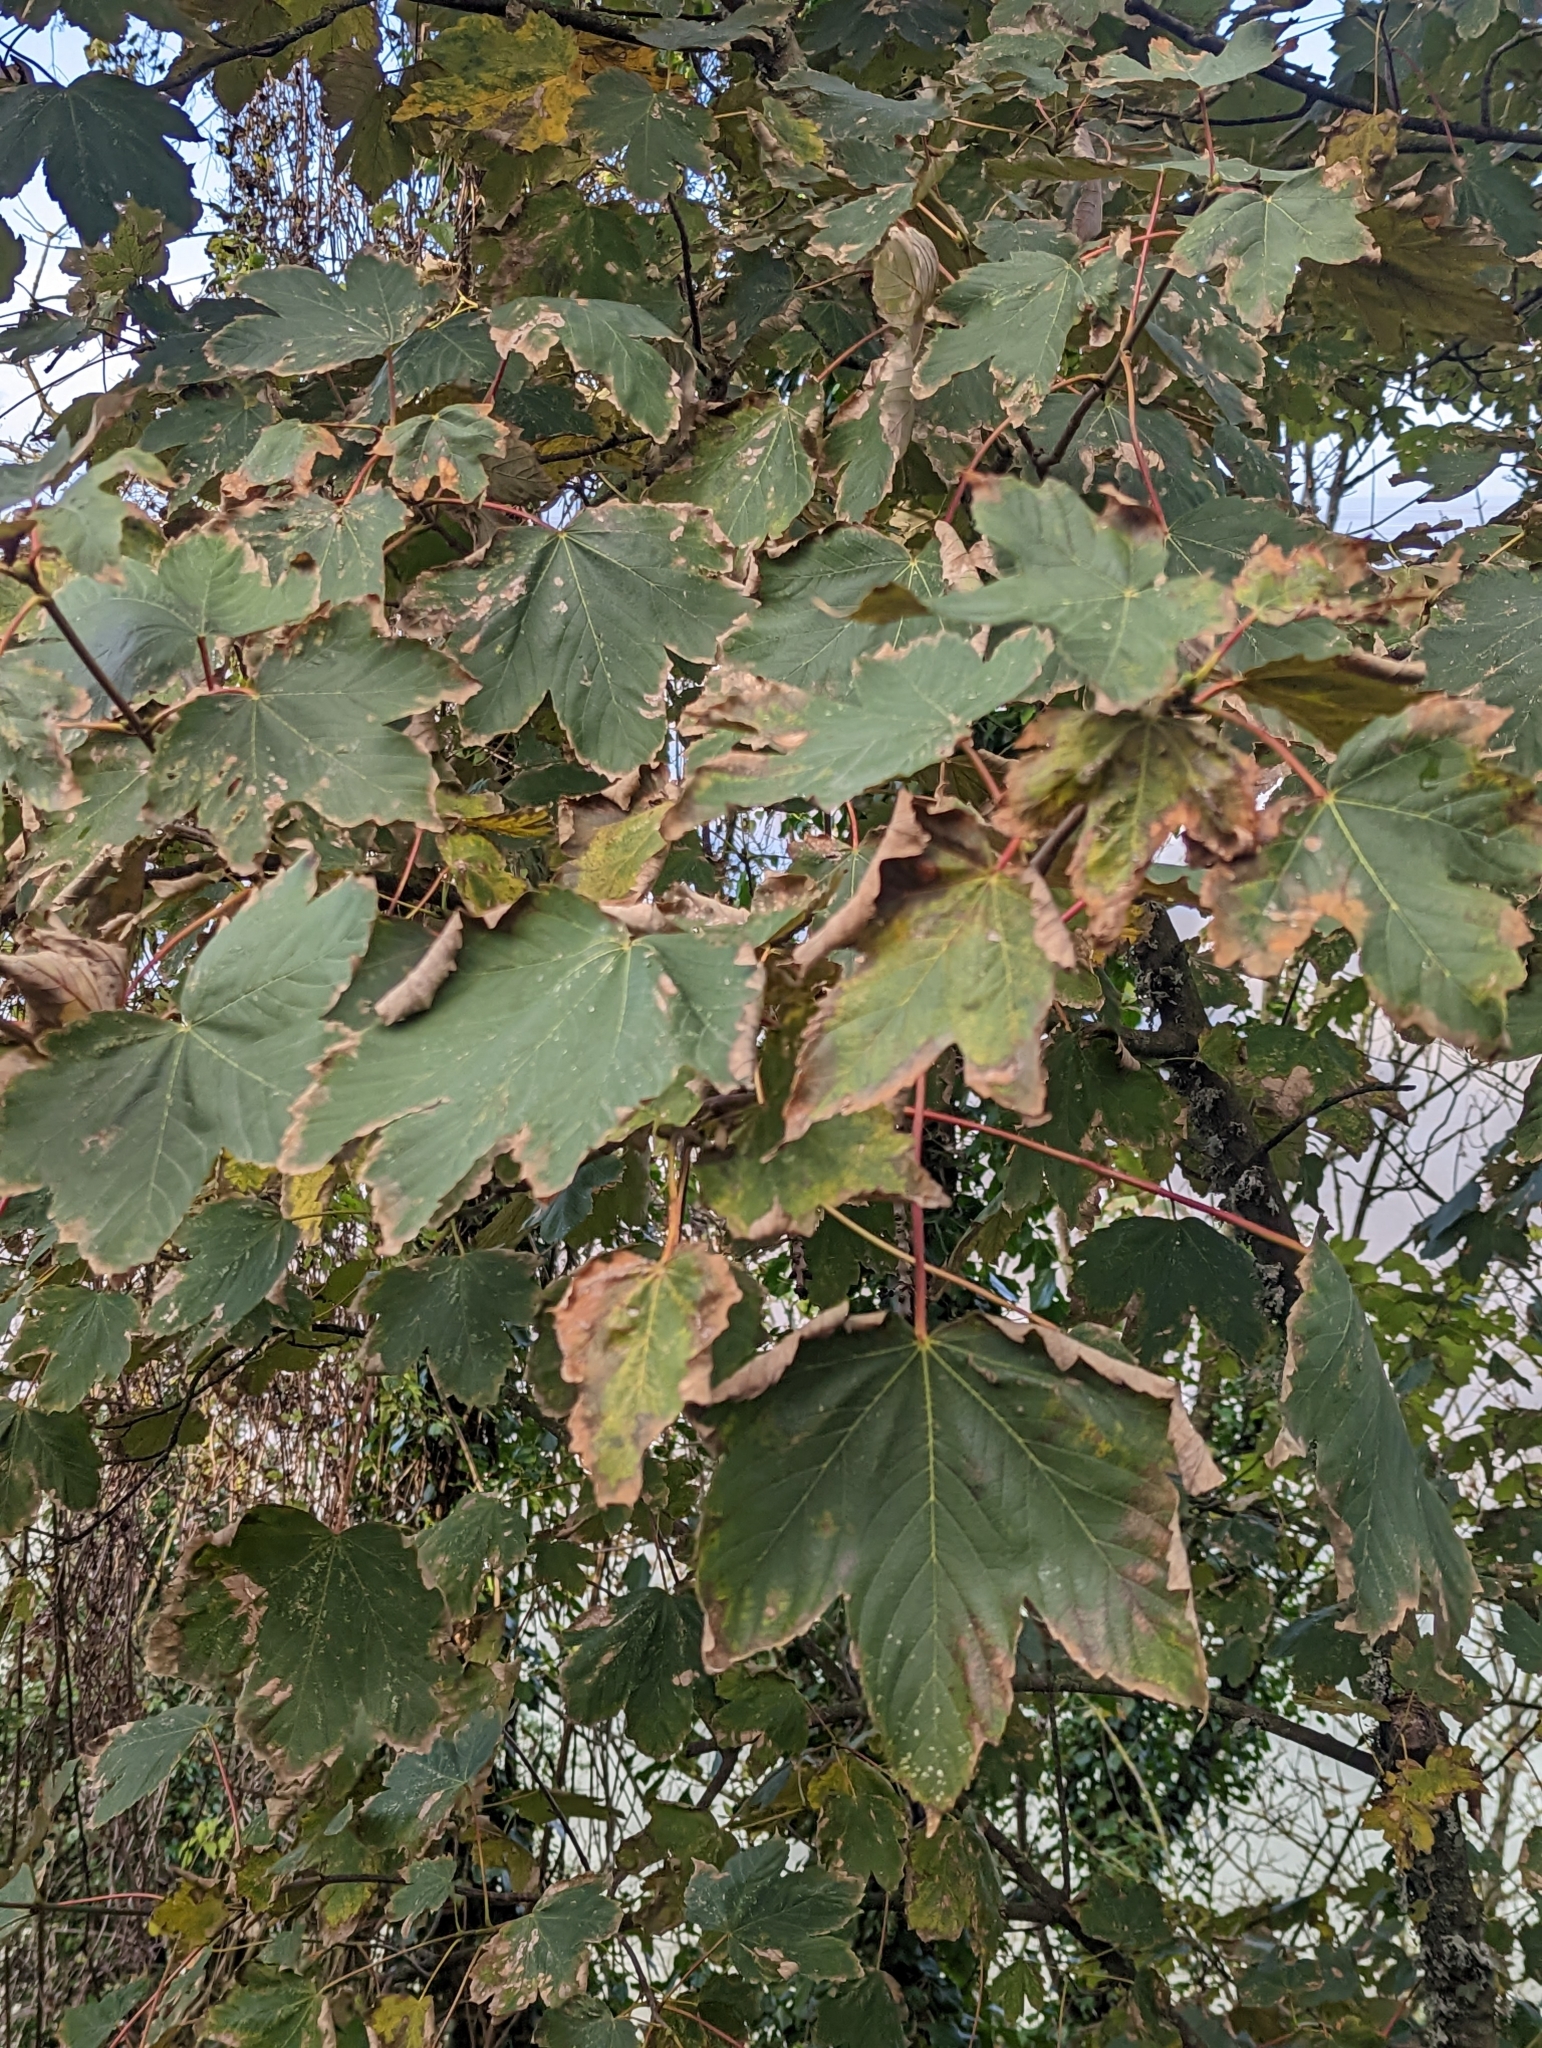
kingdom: Plantae
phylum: Tracheophyta
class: Magnoliopsida
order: Sapindales
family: Sapindaceae
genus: Acer
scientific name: Acer pseudoplatanus
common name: Sycamore
